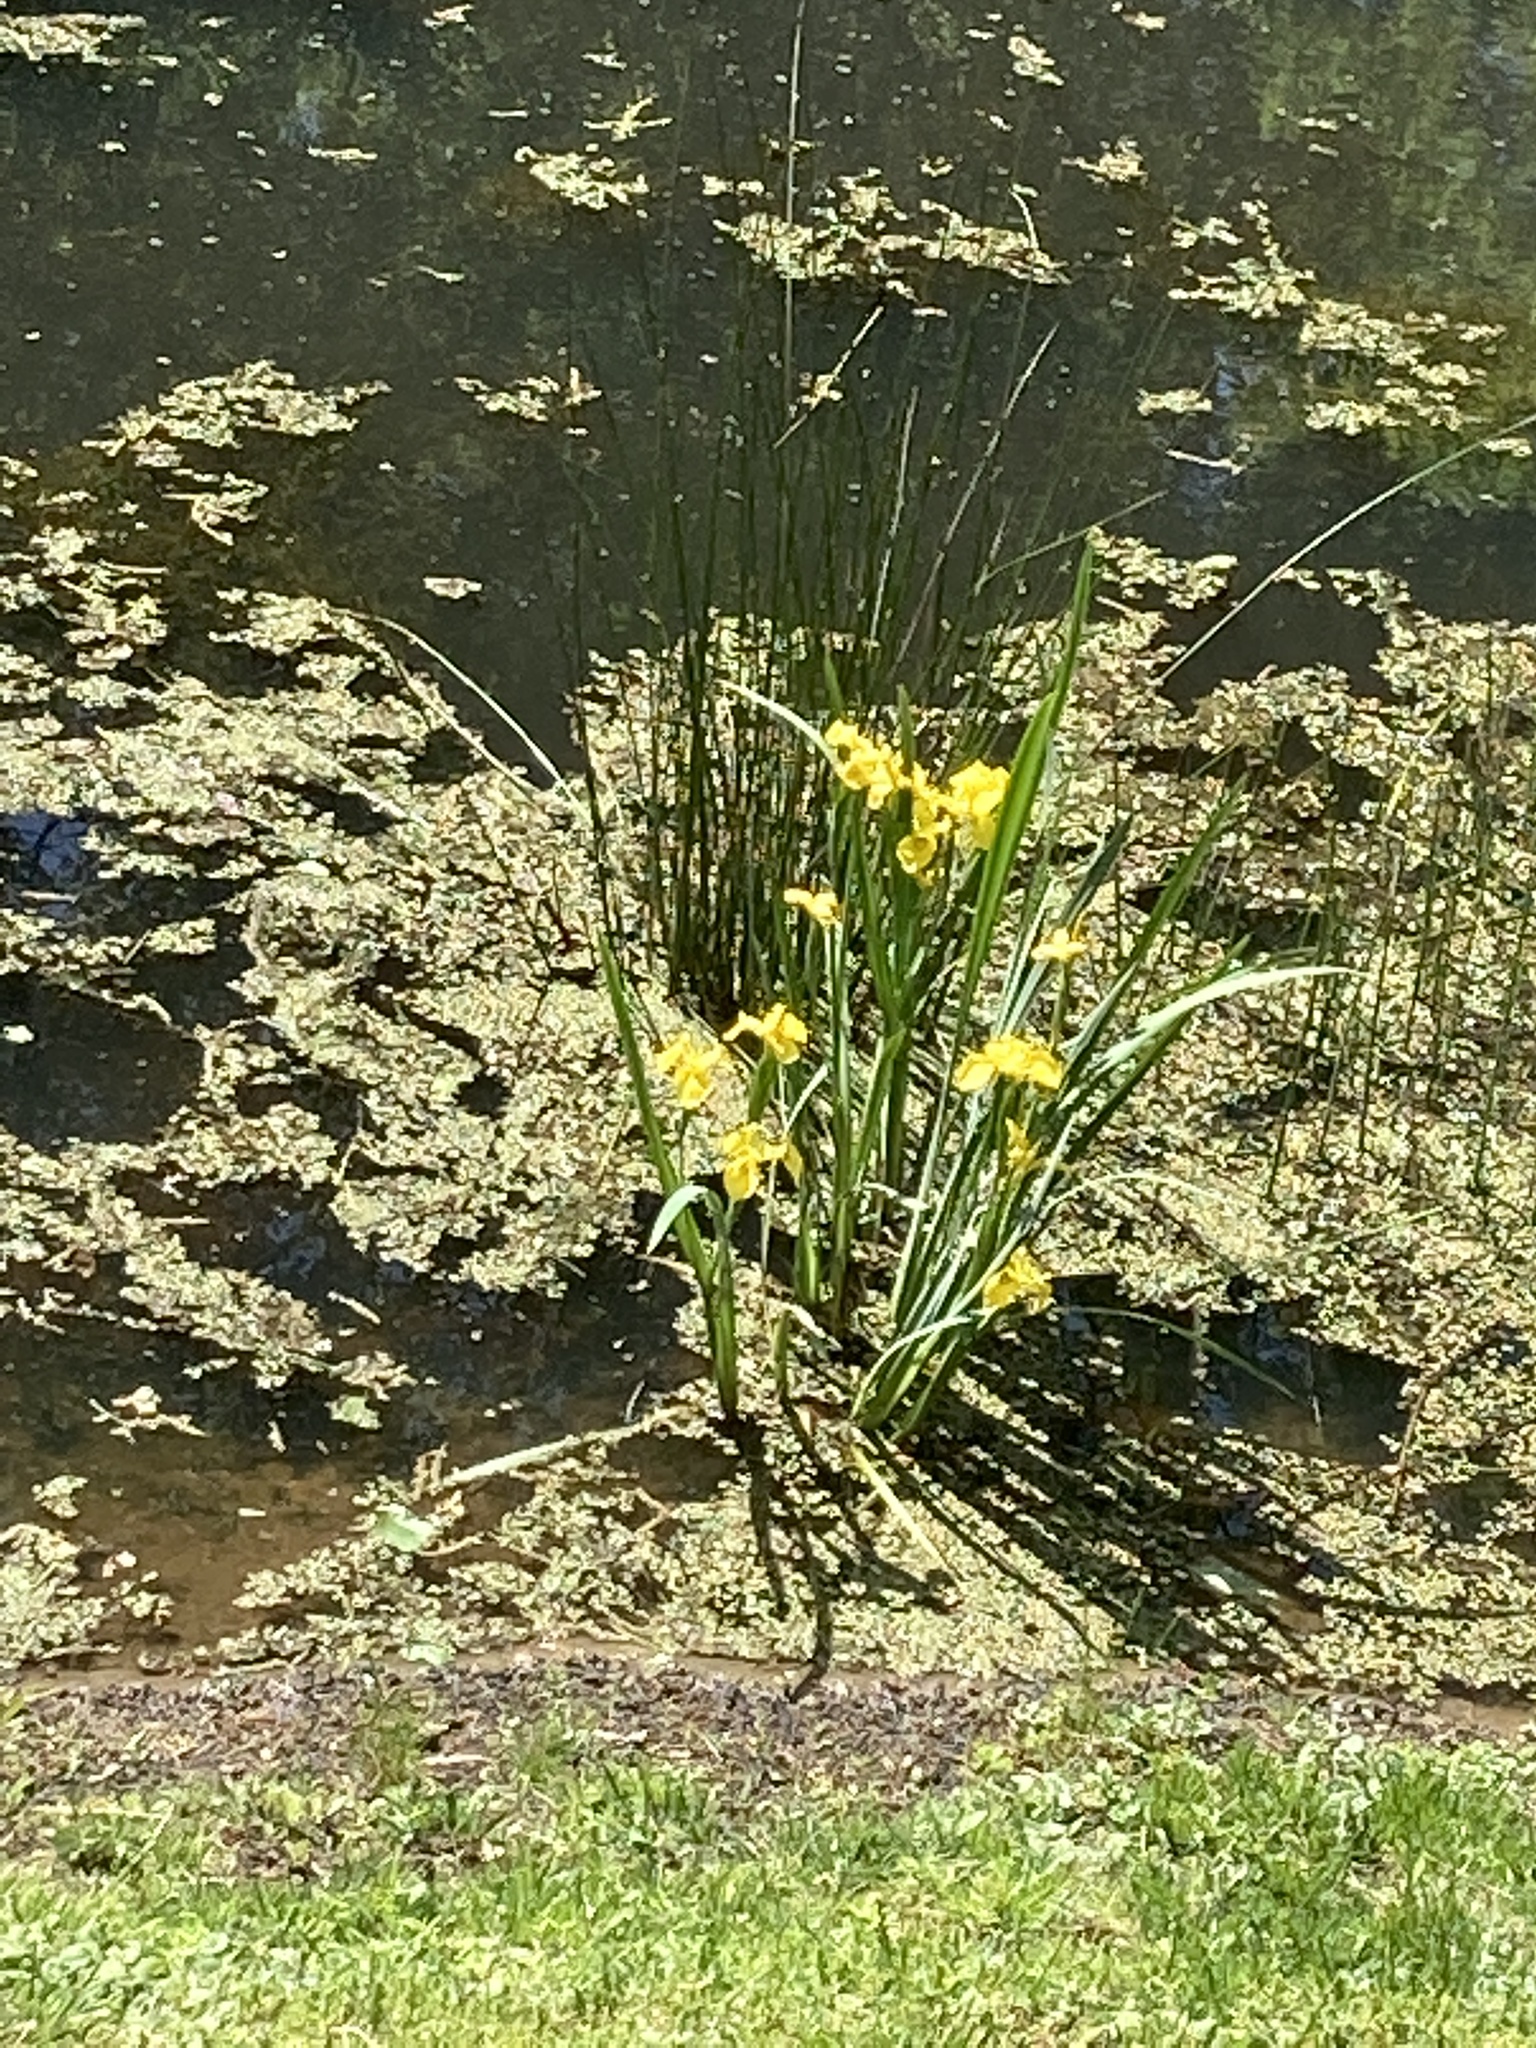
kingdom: Plantae
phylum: Tracheophyta
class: Liliopsida
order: Asparagales
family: Iridaceae
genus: Iris
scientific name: Iris pseudacorus
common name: Yellow flag
